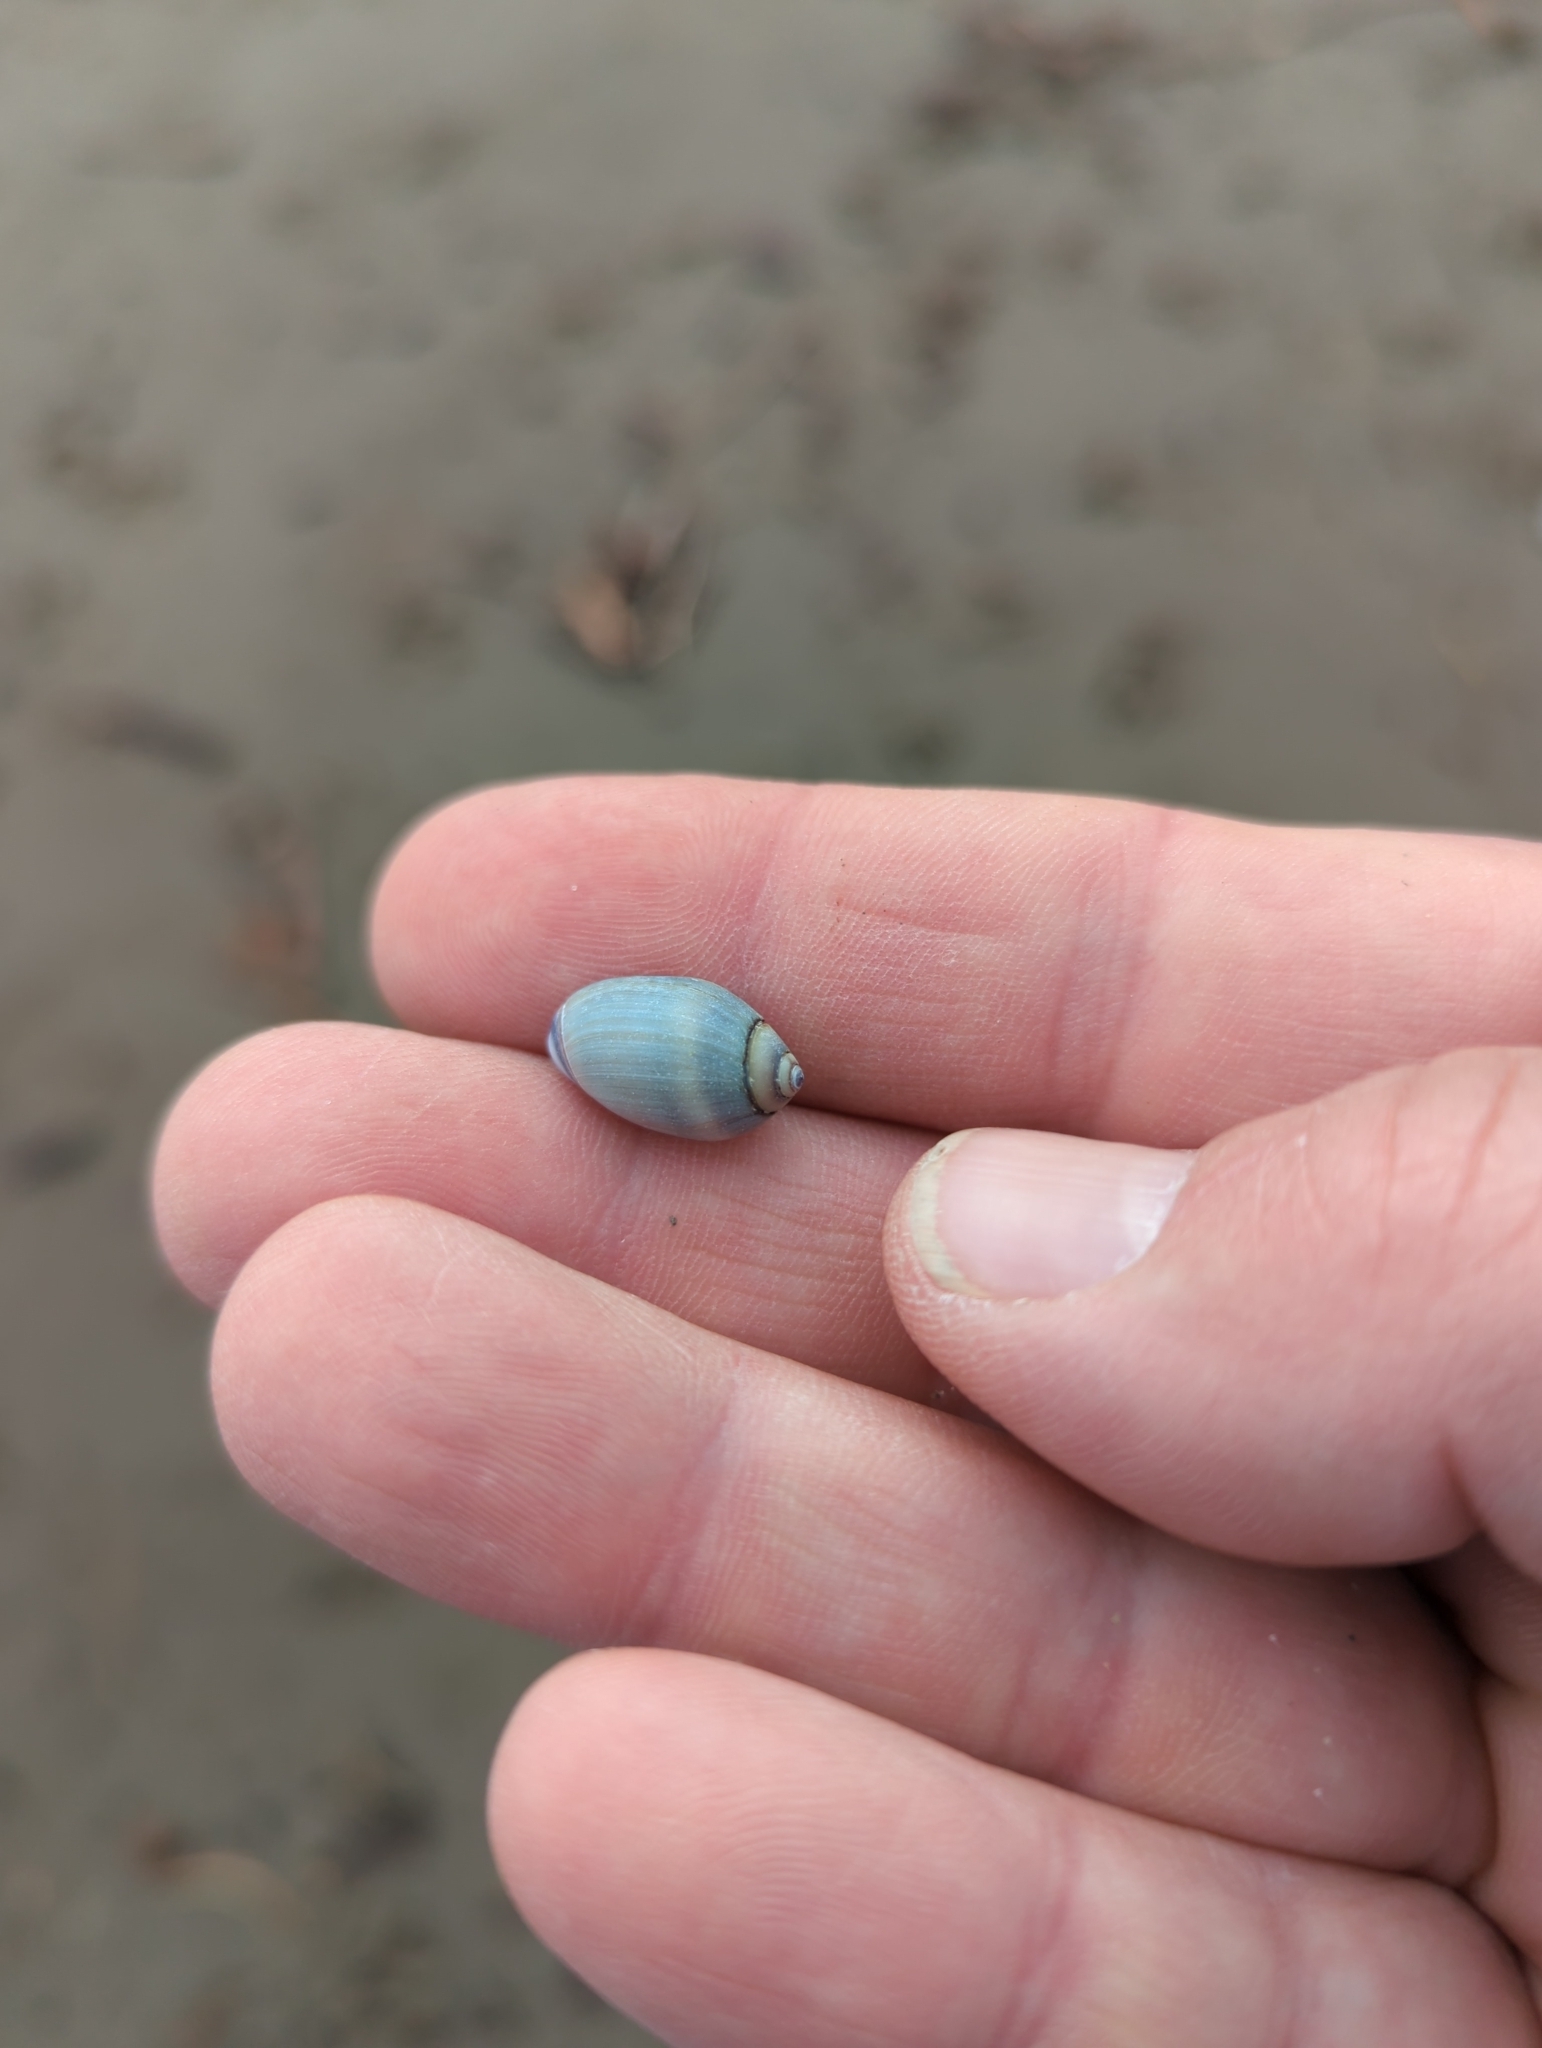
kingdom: Animalia
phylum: Mollusca
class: Gastropoda
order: Neogastropoda
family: Olividae
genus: Callianax
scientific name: Callianax biplicata
